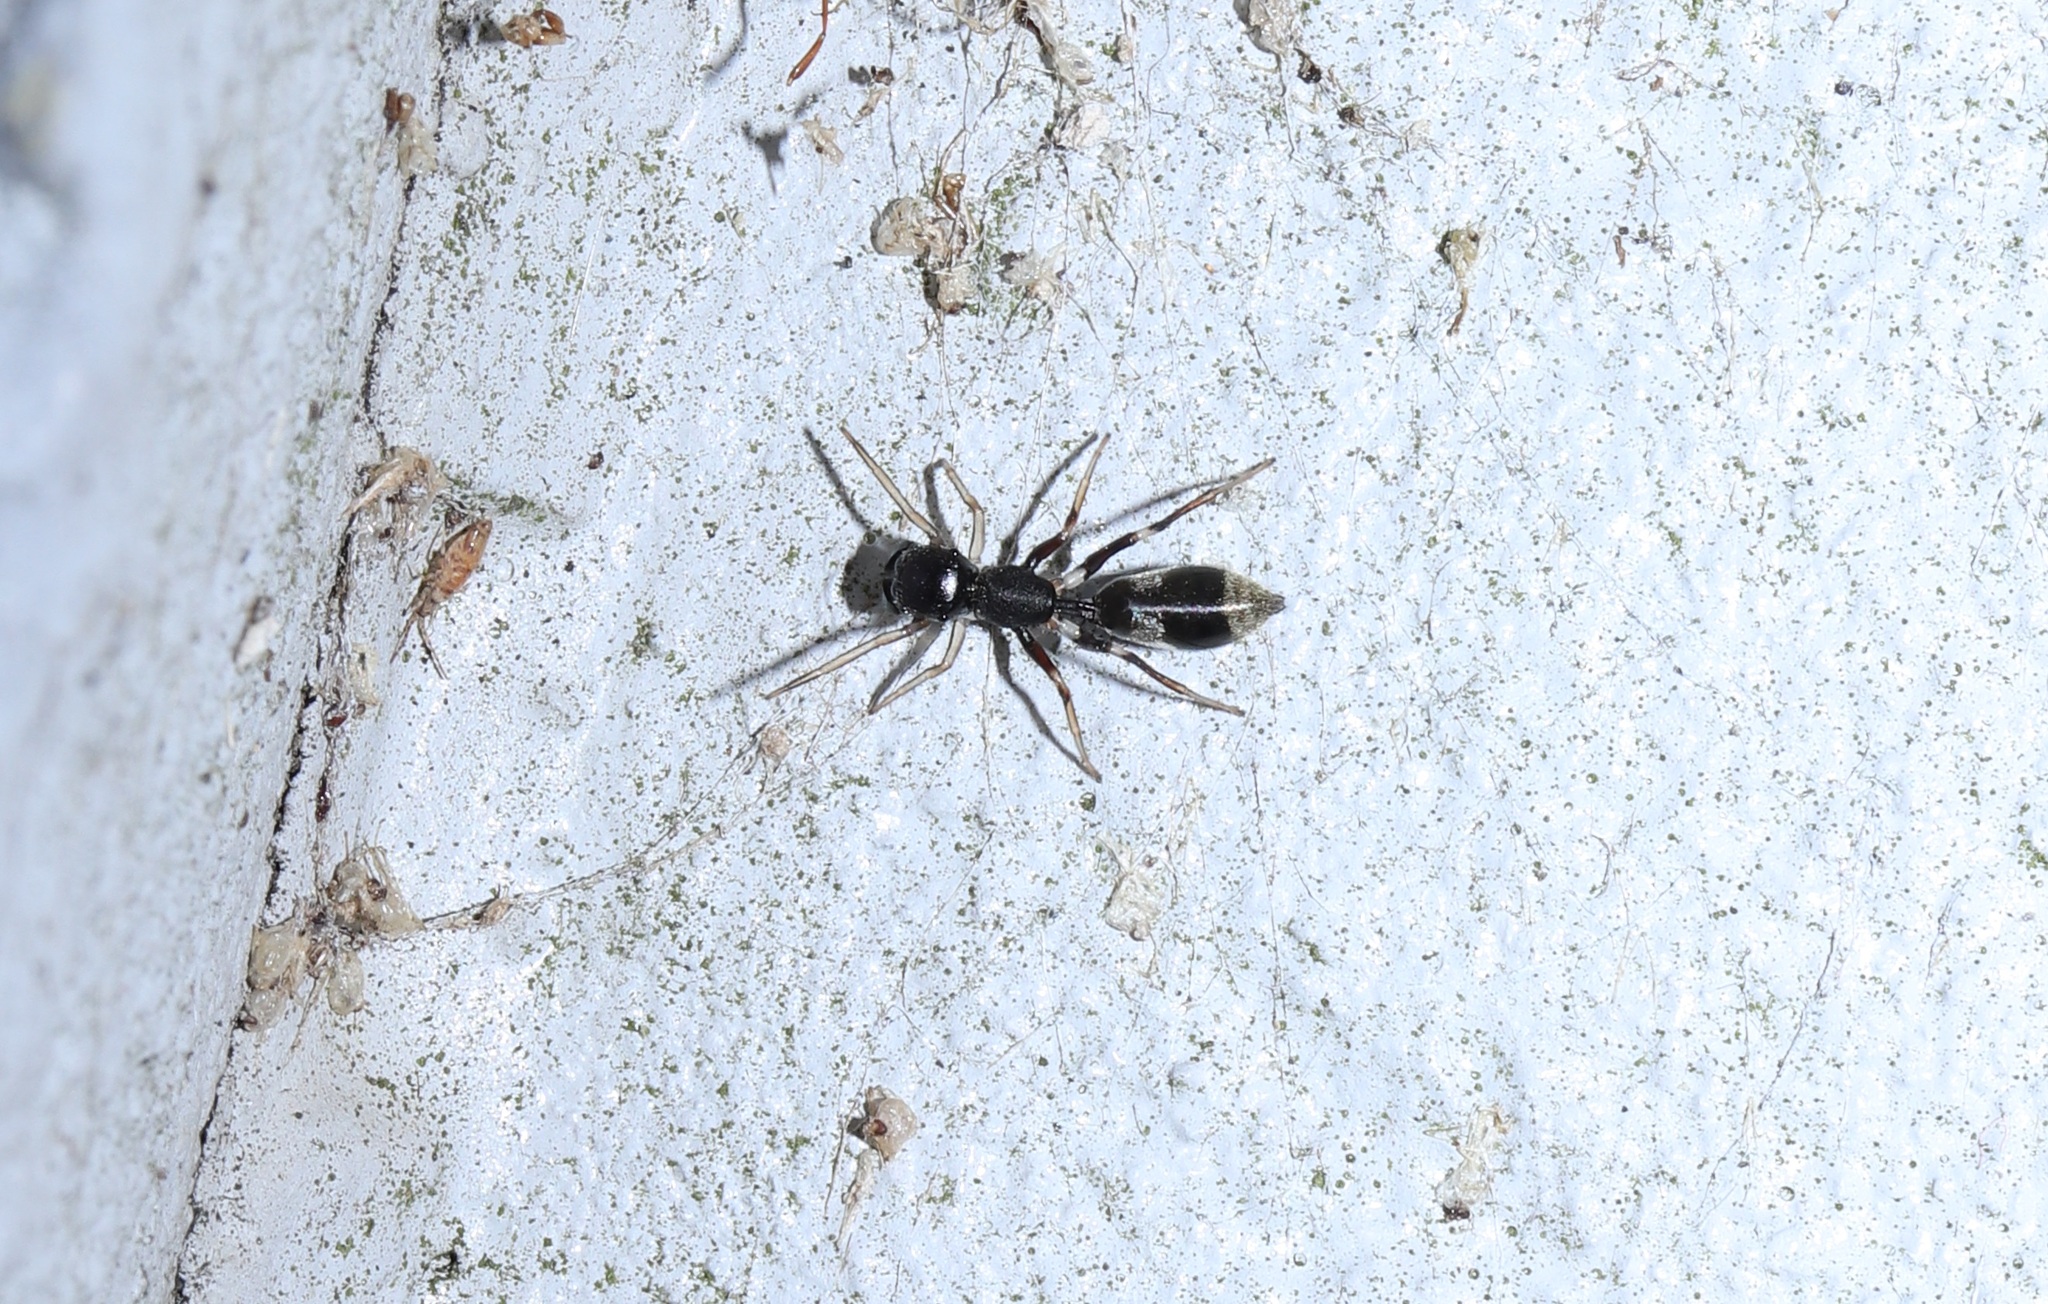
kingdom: Animalia
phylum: Arthropoda
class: Arachnida
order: Araneae
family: Salticidae
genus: Myrmarachne
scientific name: Myrmarachne elongata
